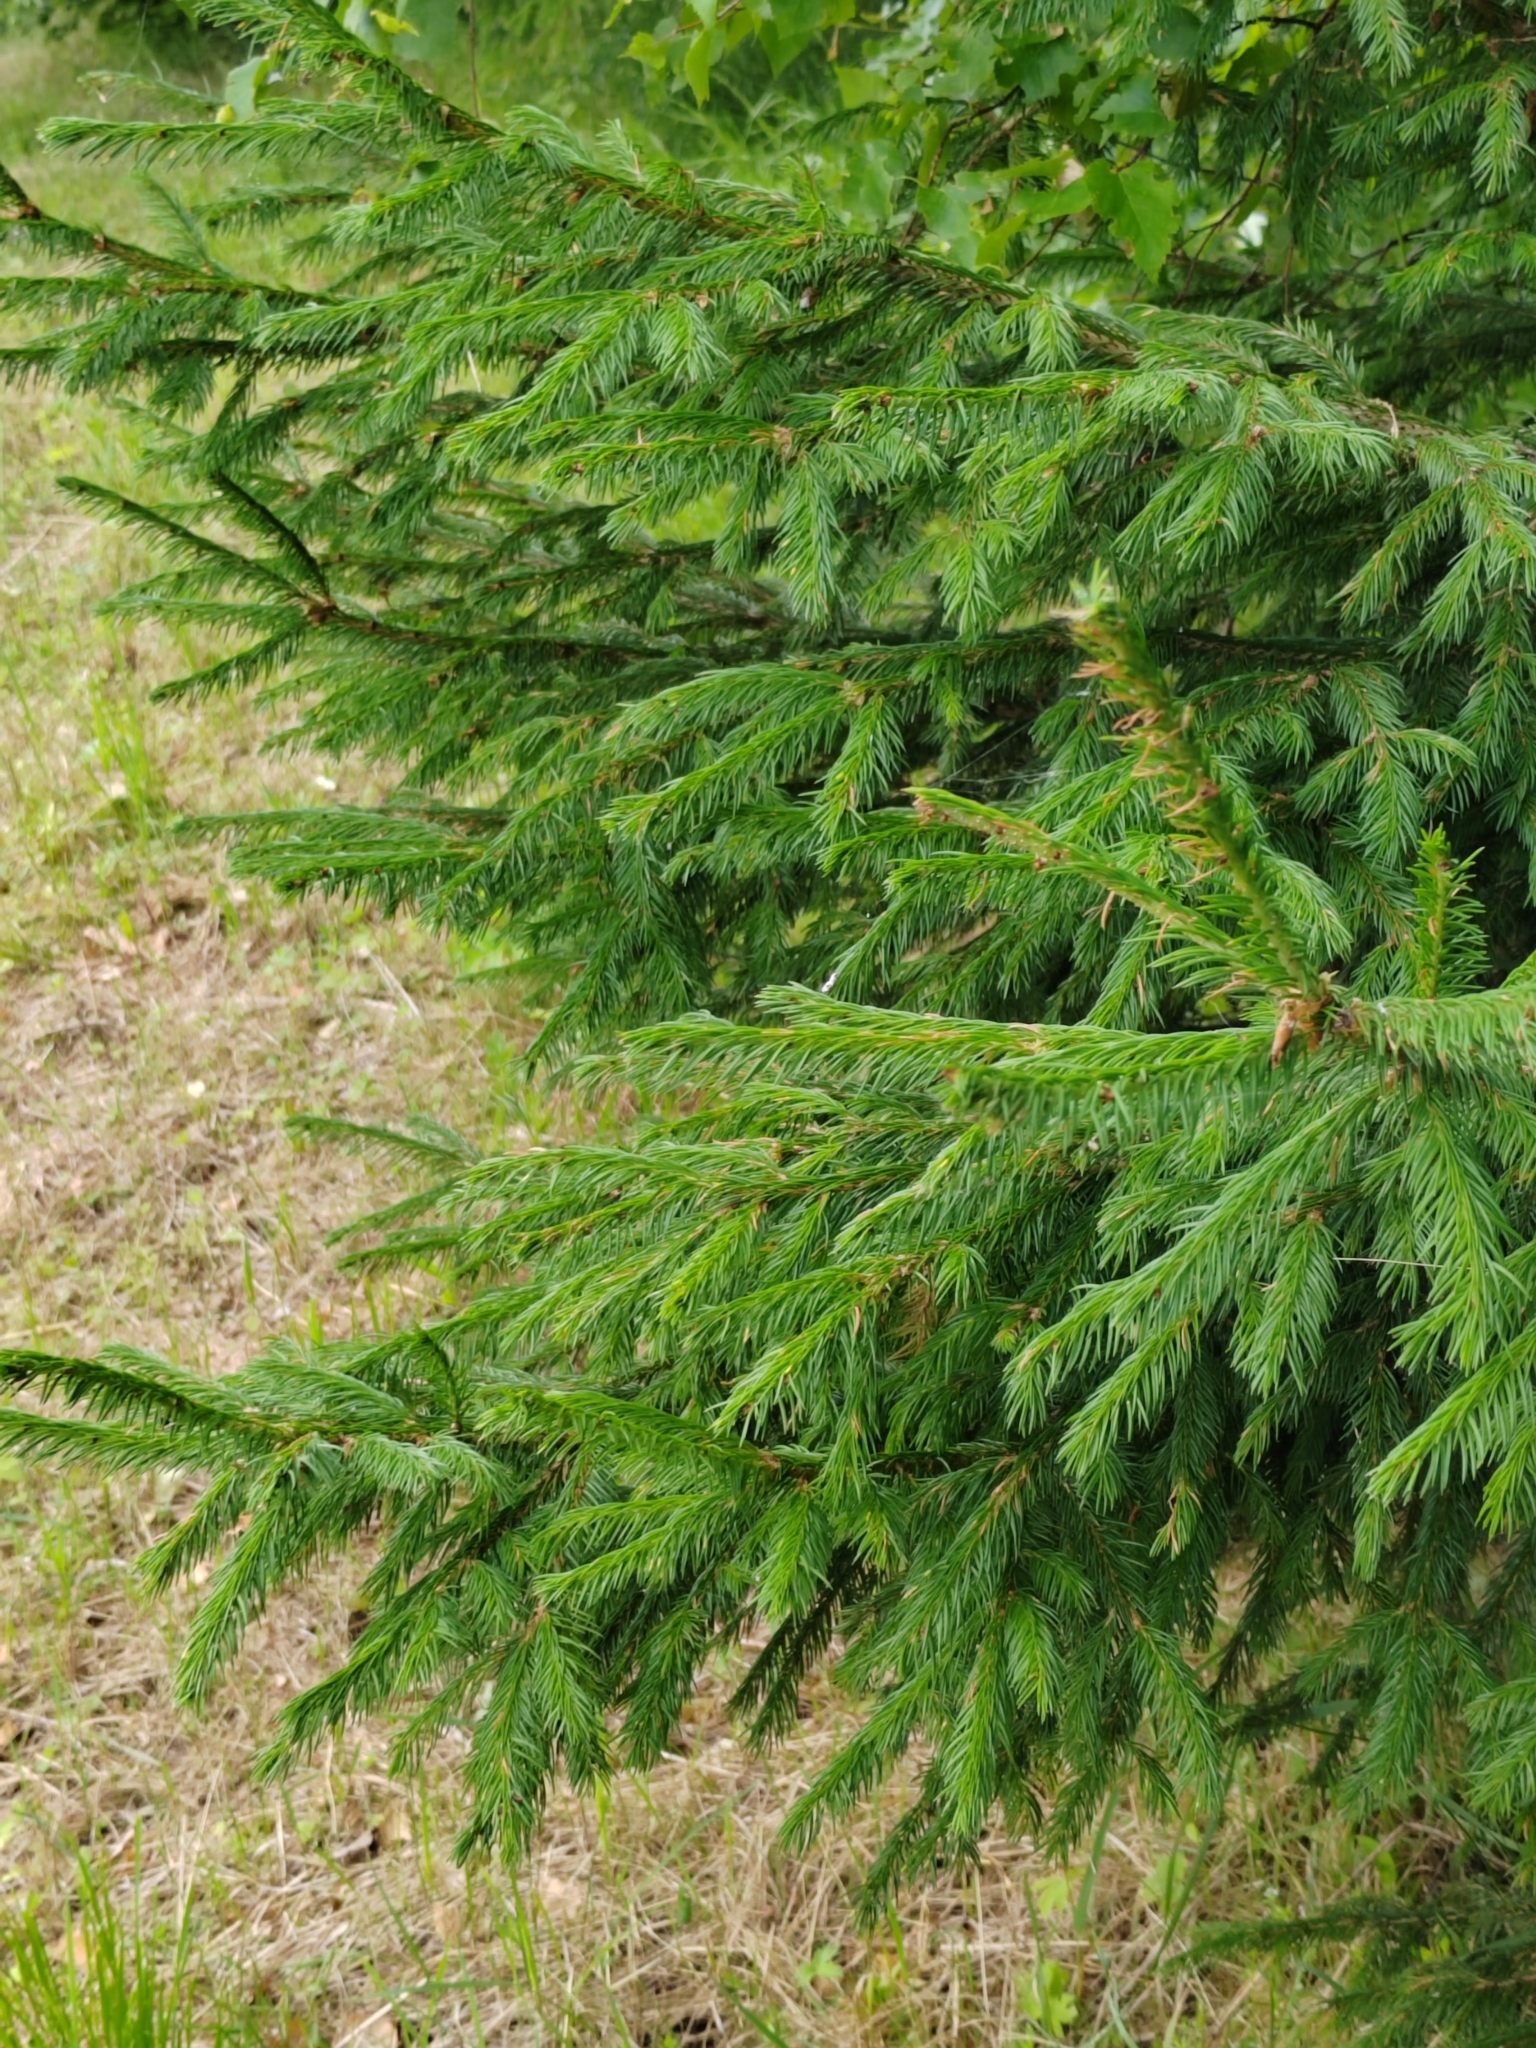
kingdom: Plantae
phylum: Tracheophyta
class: Pinopsida
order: Pinales
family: Pinaceae
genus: Picea
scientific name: Picea obovata
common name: Siberian spruce
